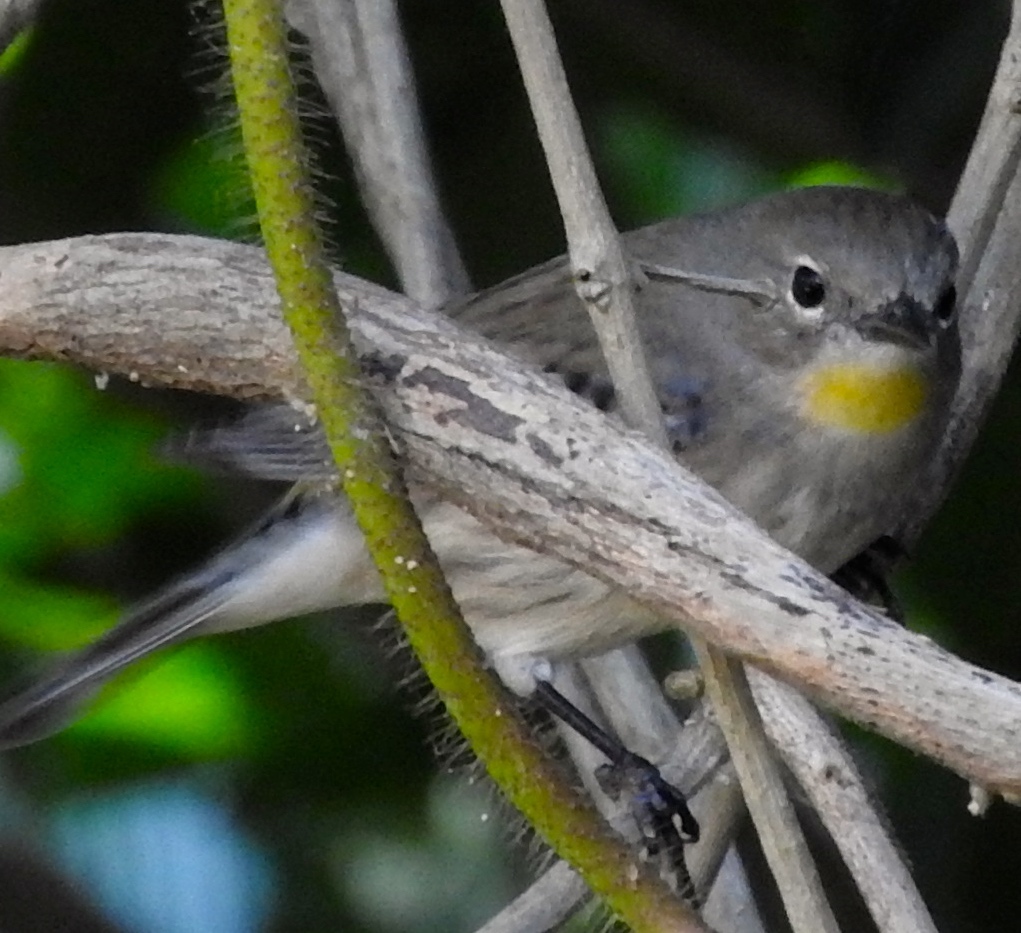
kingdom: Animalia
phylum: Chordata
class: Aves
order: Passeriformes
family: Parulidae
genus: Setophaga
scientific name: Setophaga coronata
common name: Myrtle warbler
